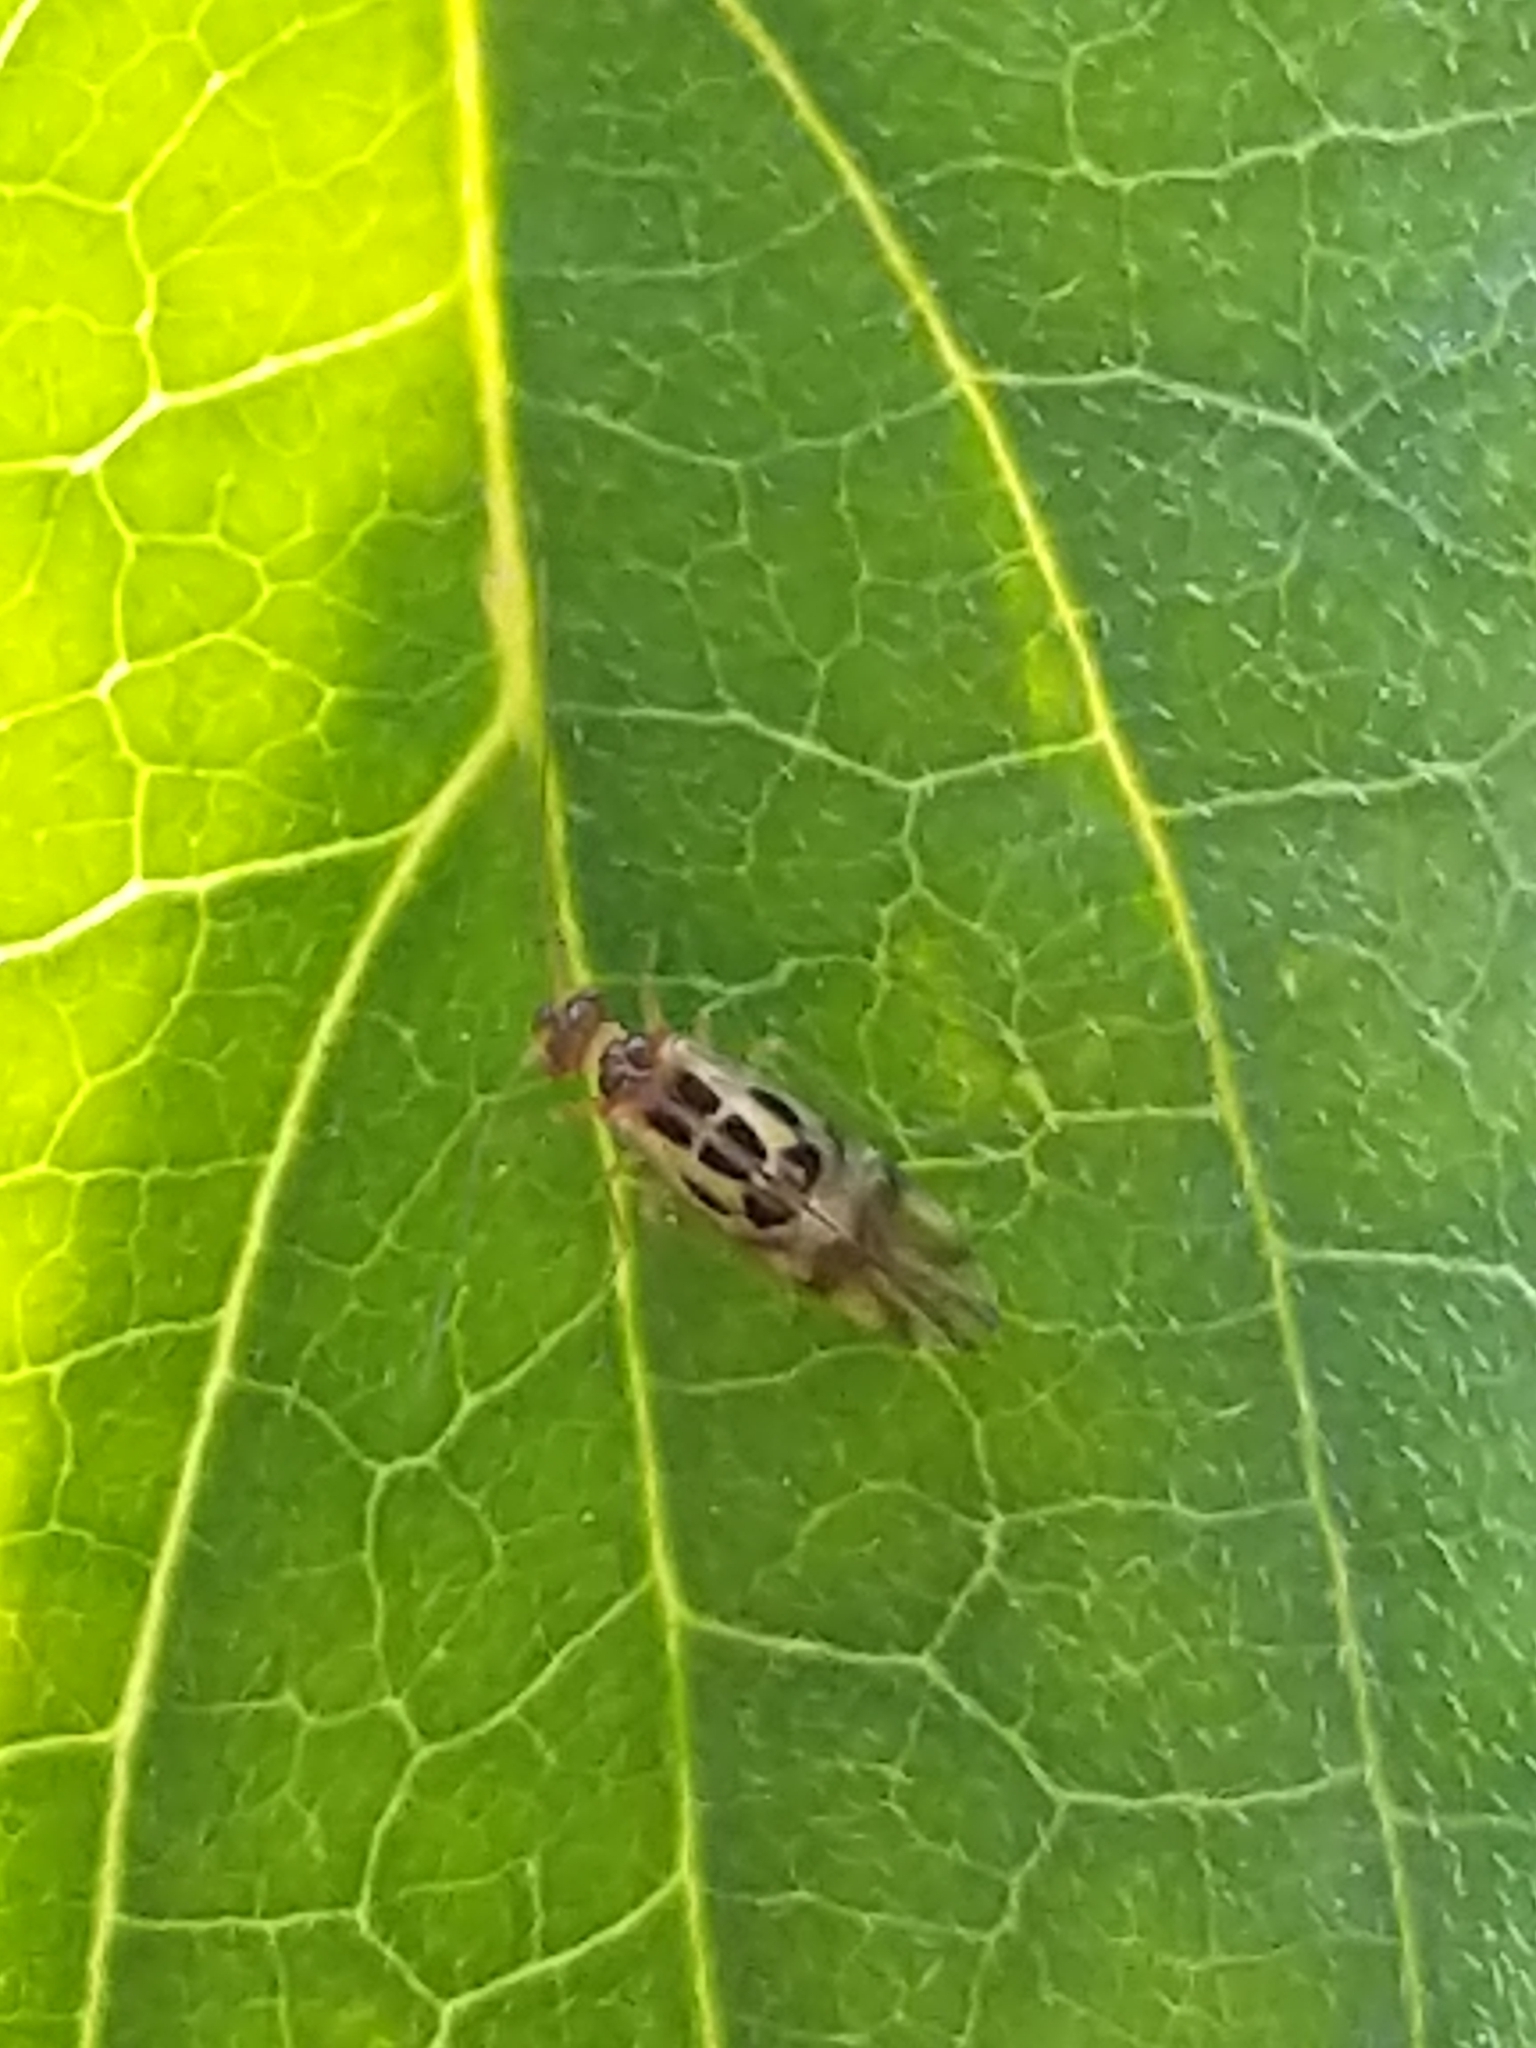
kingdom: Animalia
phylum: Arthropoda
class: Insecta
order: Psocodea
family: Stenopsocidae
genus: Graphopsocus
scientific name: Graphopsocus cruciatus
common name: Lizard bark louse
